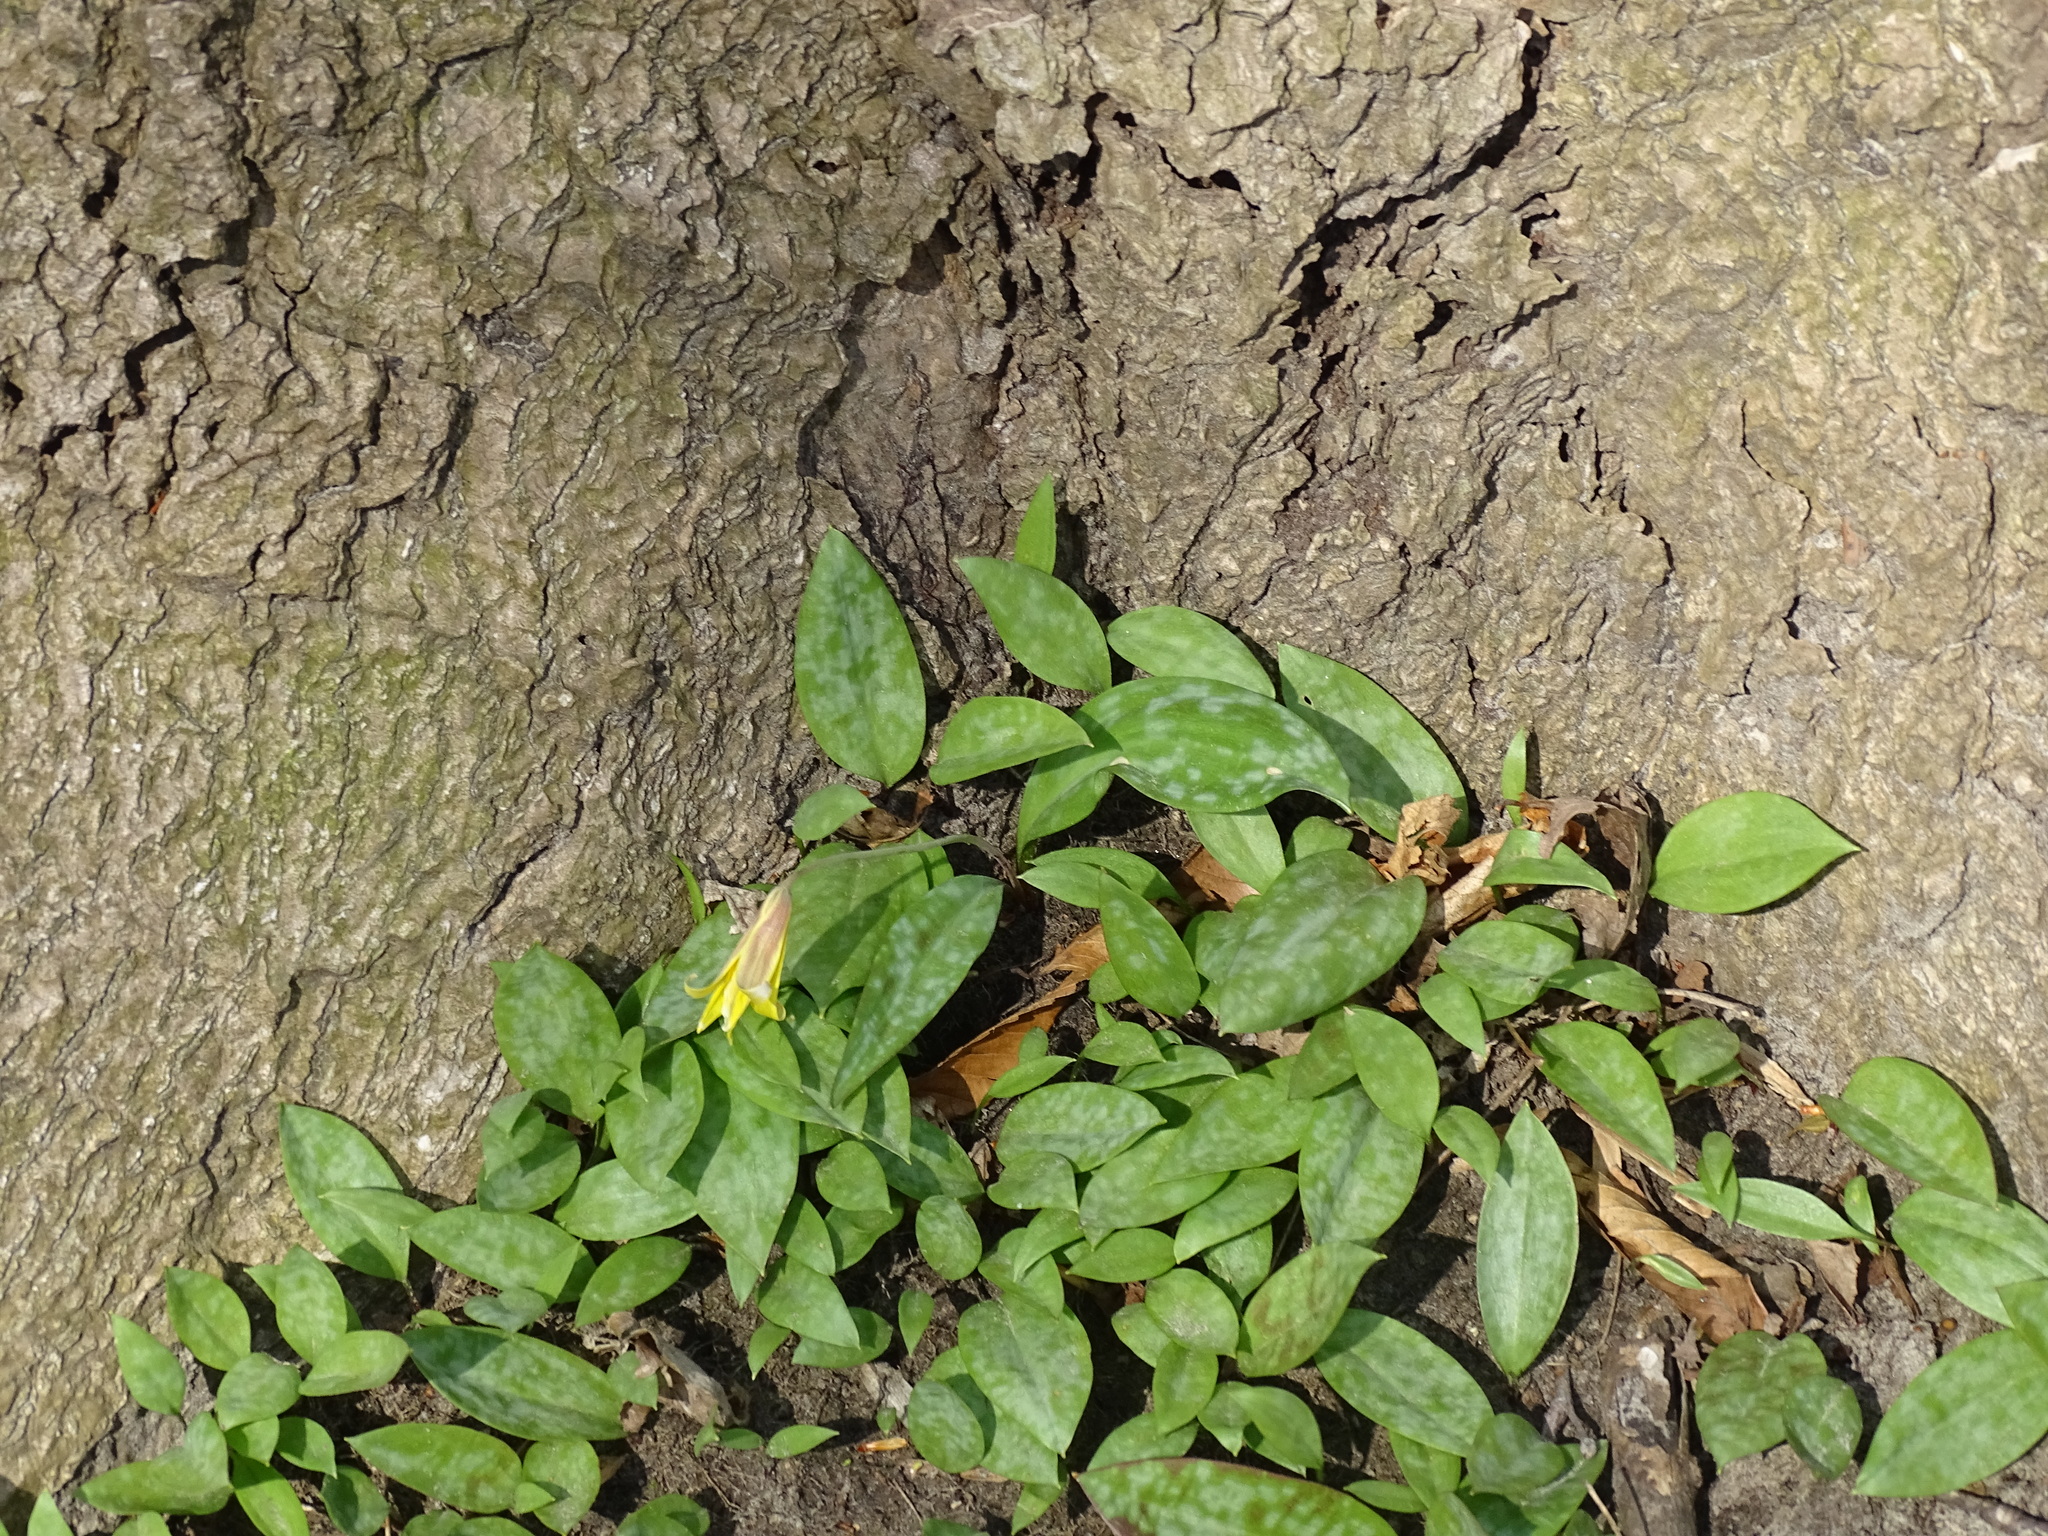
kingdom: Plantae
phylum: Tracheophyta
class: Liliopsida
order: Liliales
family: Liliaceae
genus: Erythronium
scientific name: Erythronium americanum
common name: Yellow adder's-tongue
